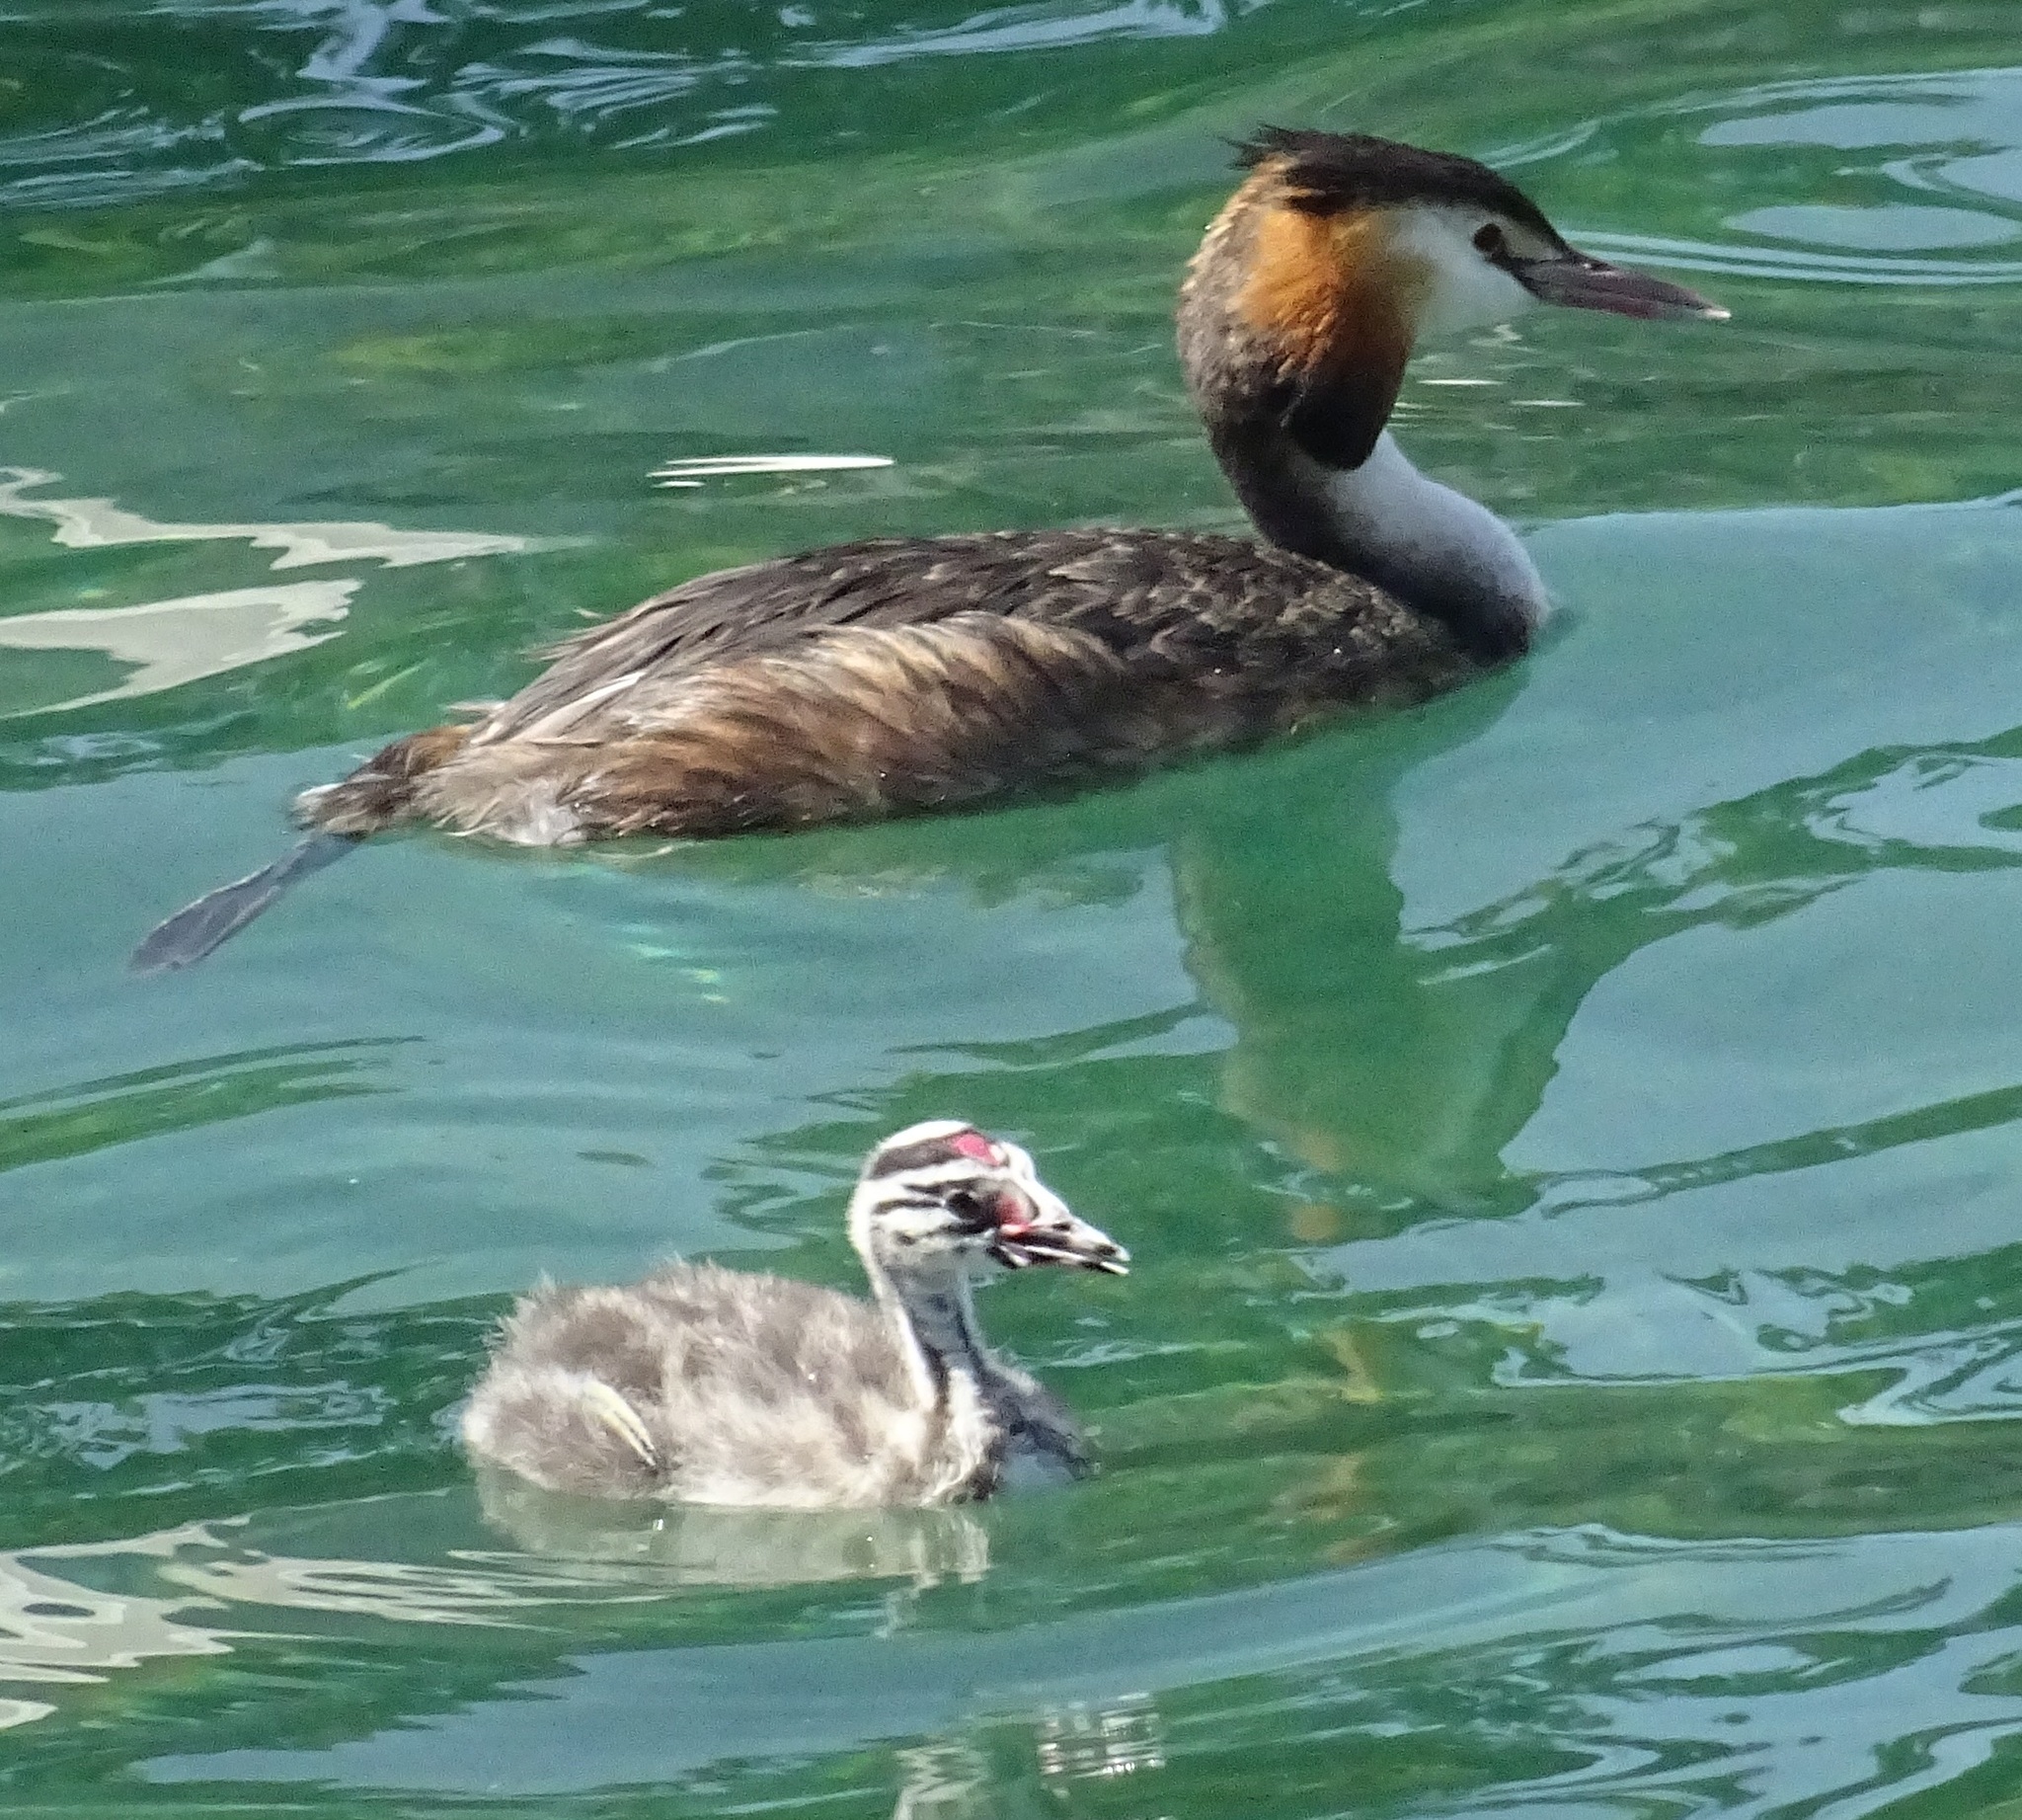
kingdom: Animalia
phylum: Chordata
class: Aves
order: Podicipediformes
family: Podicipedidae
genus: Podiceps
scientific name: Podiceps cristatus
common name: Great crested grebe
